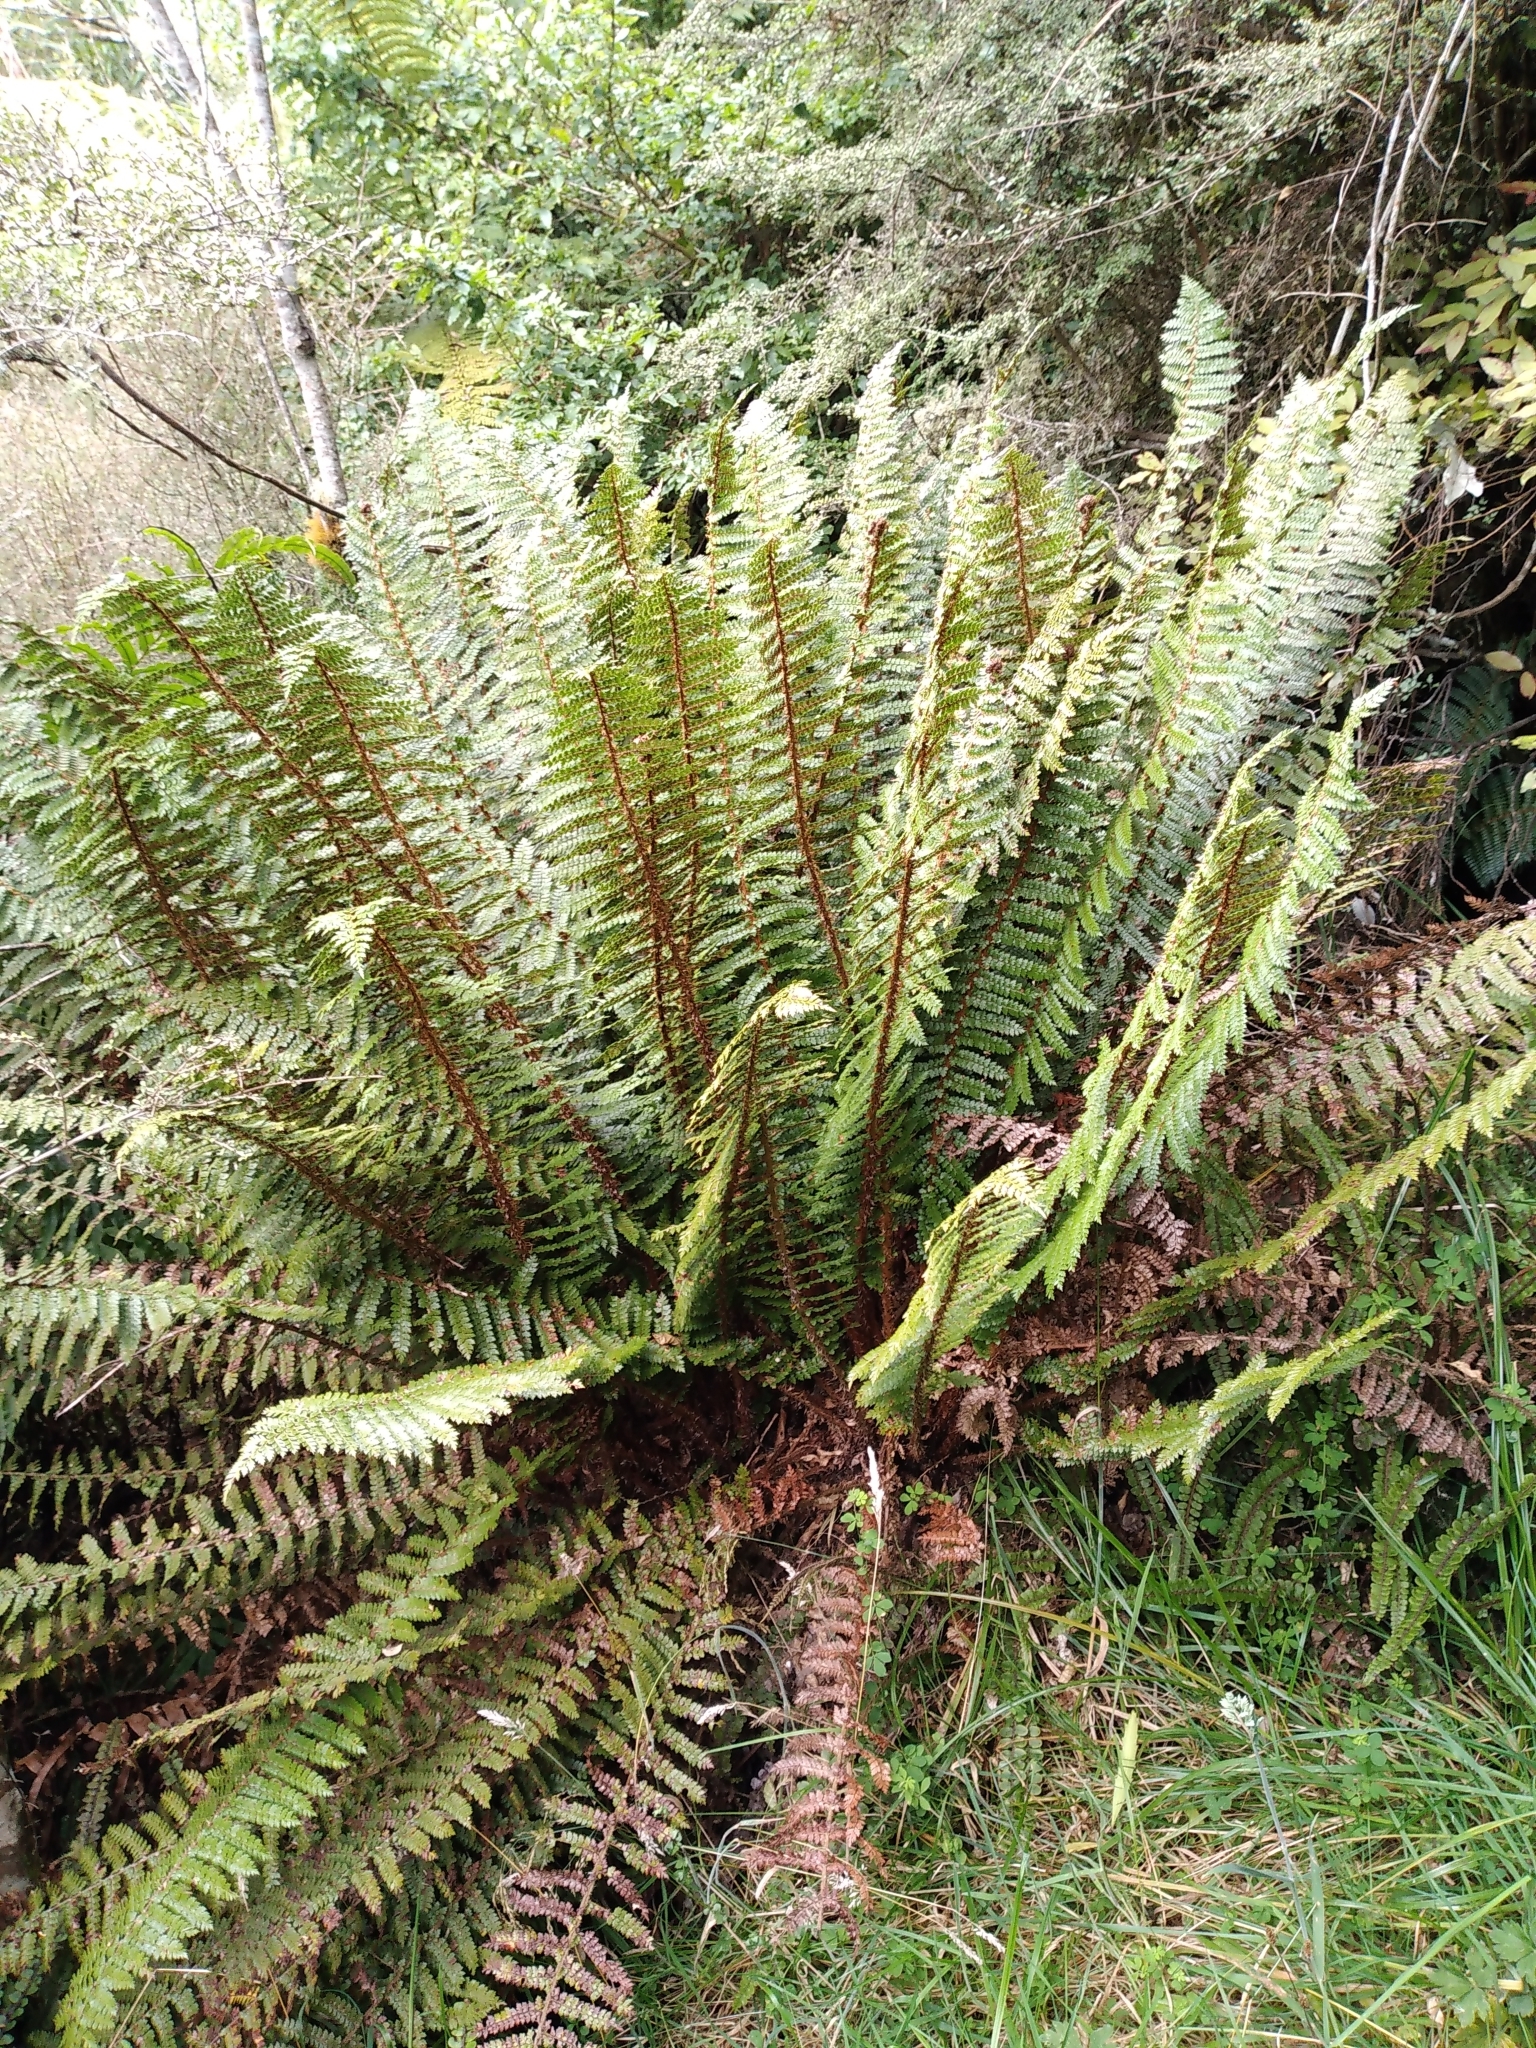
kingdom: Plantae
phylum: Tracheophyta
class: Polypodiopsida
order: Polypodiales
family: Dryopteridaceae
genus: Polystichum
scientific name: Polystichum vestitum
